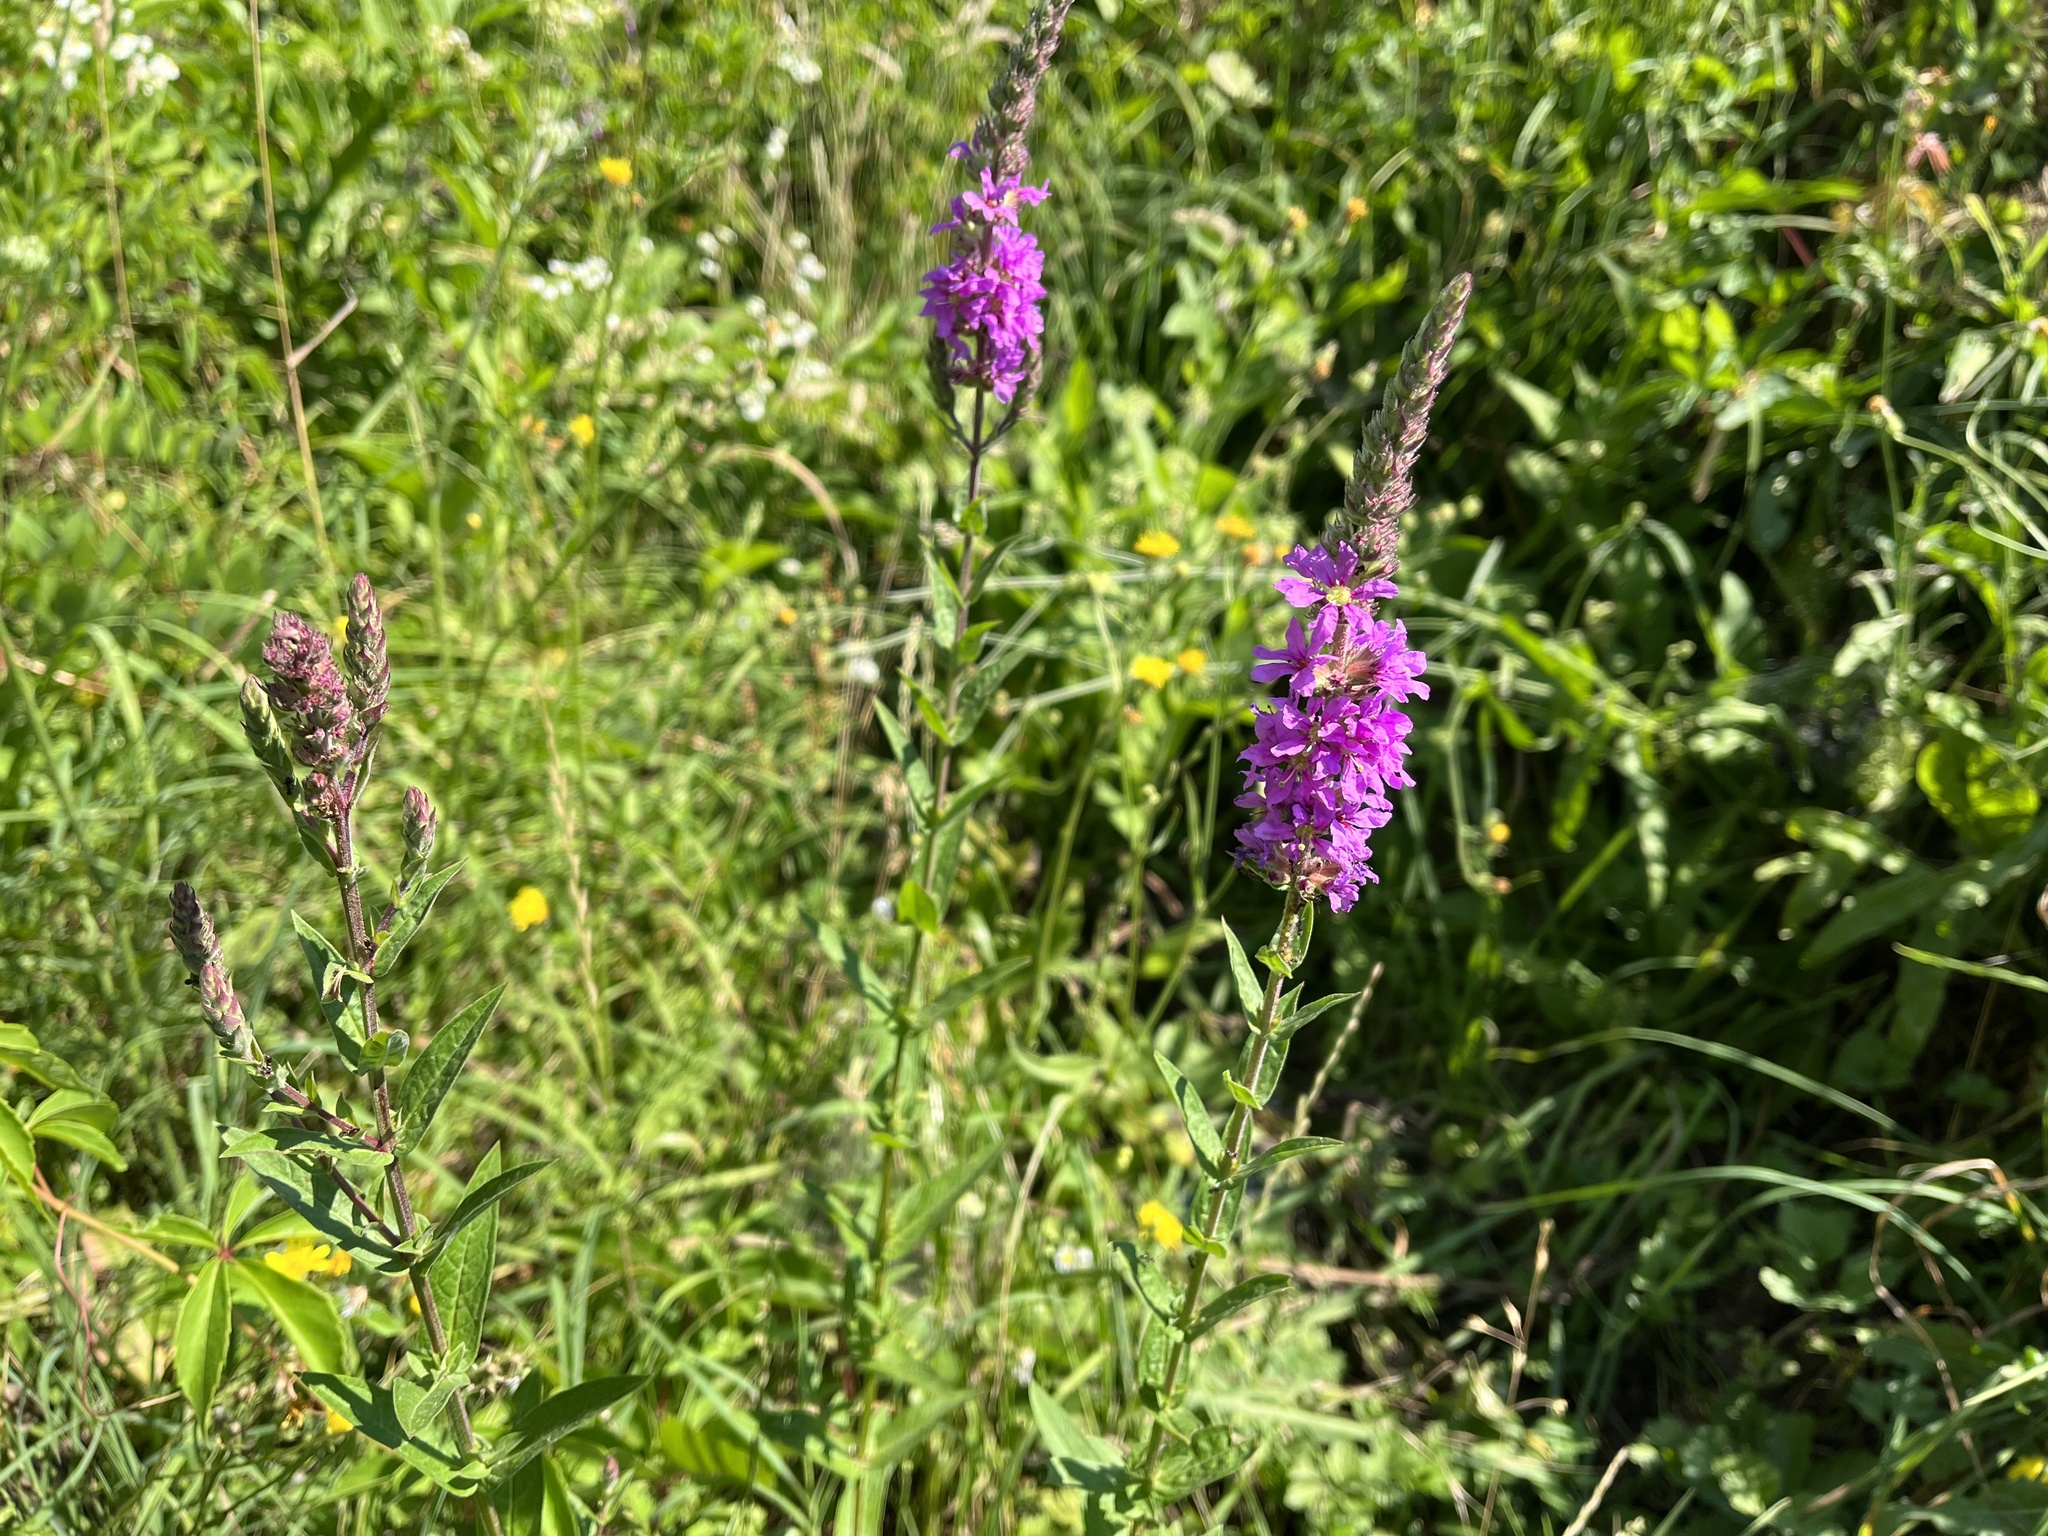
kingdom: Plantae
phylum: Tracheophyta
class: Magnoliopsida
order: Myrtales
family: Lythraceae
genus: Lythrum
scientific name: Lythrum salicaria
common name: Purple loosestrife
